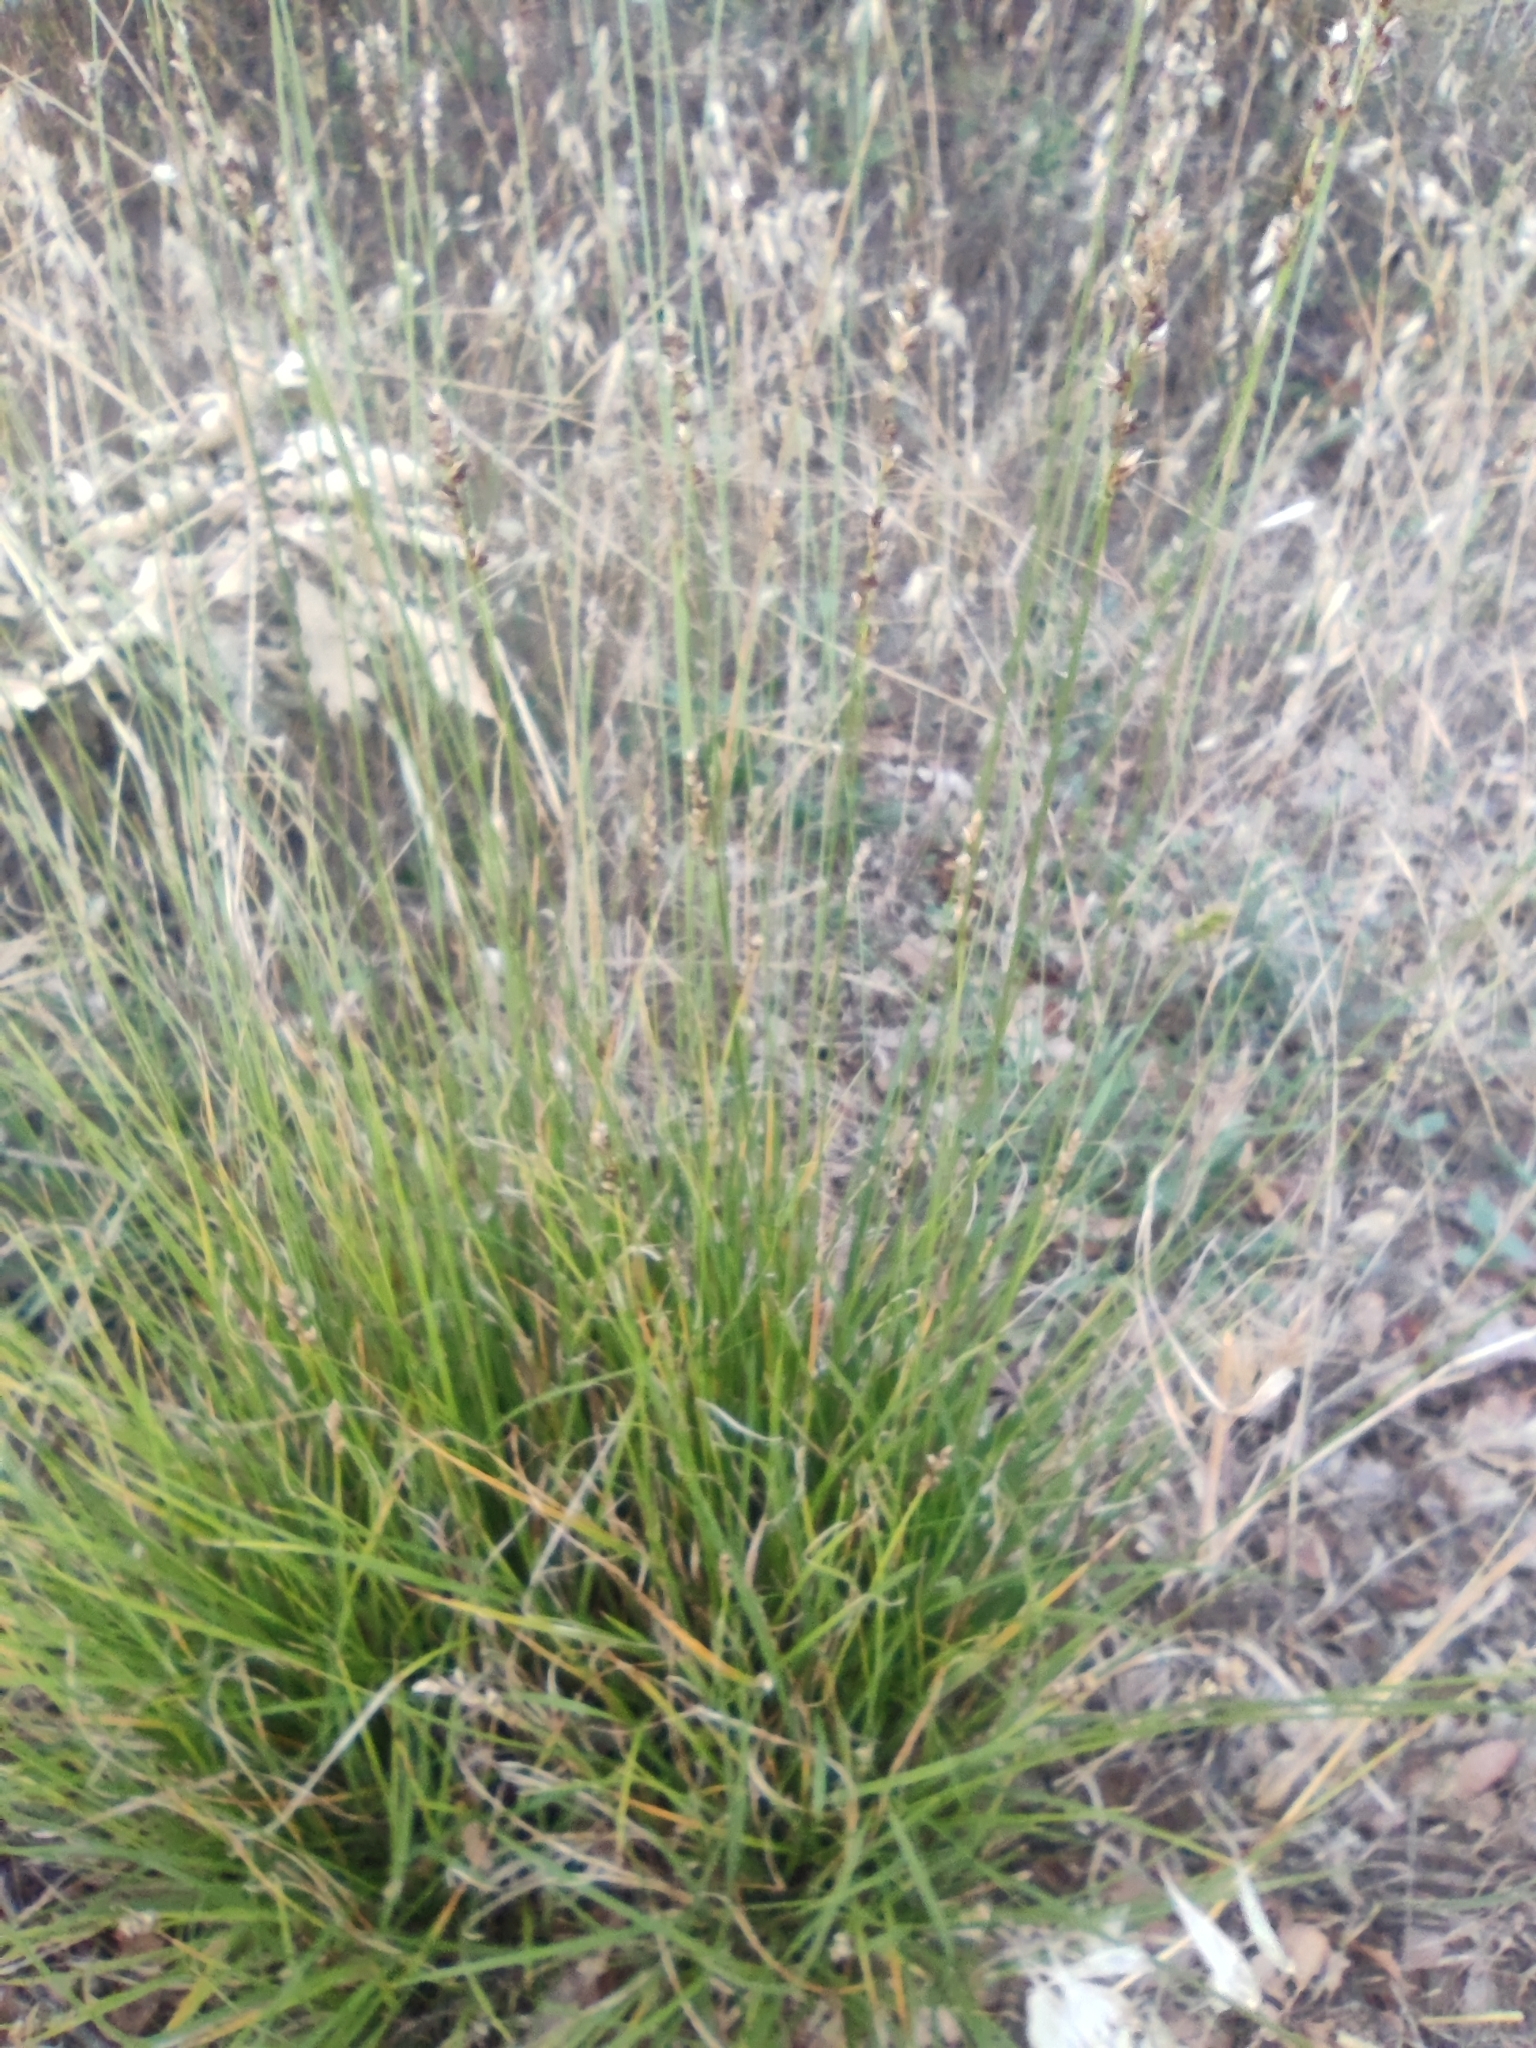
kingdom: Plantae
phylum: Tracheophyta
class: Liliopsida
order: Poales
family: Cyperaceae
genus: Carex
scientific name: Carex divulsa
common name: Grassland sedge
